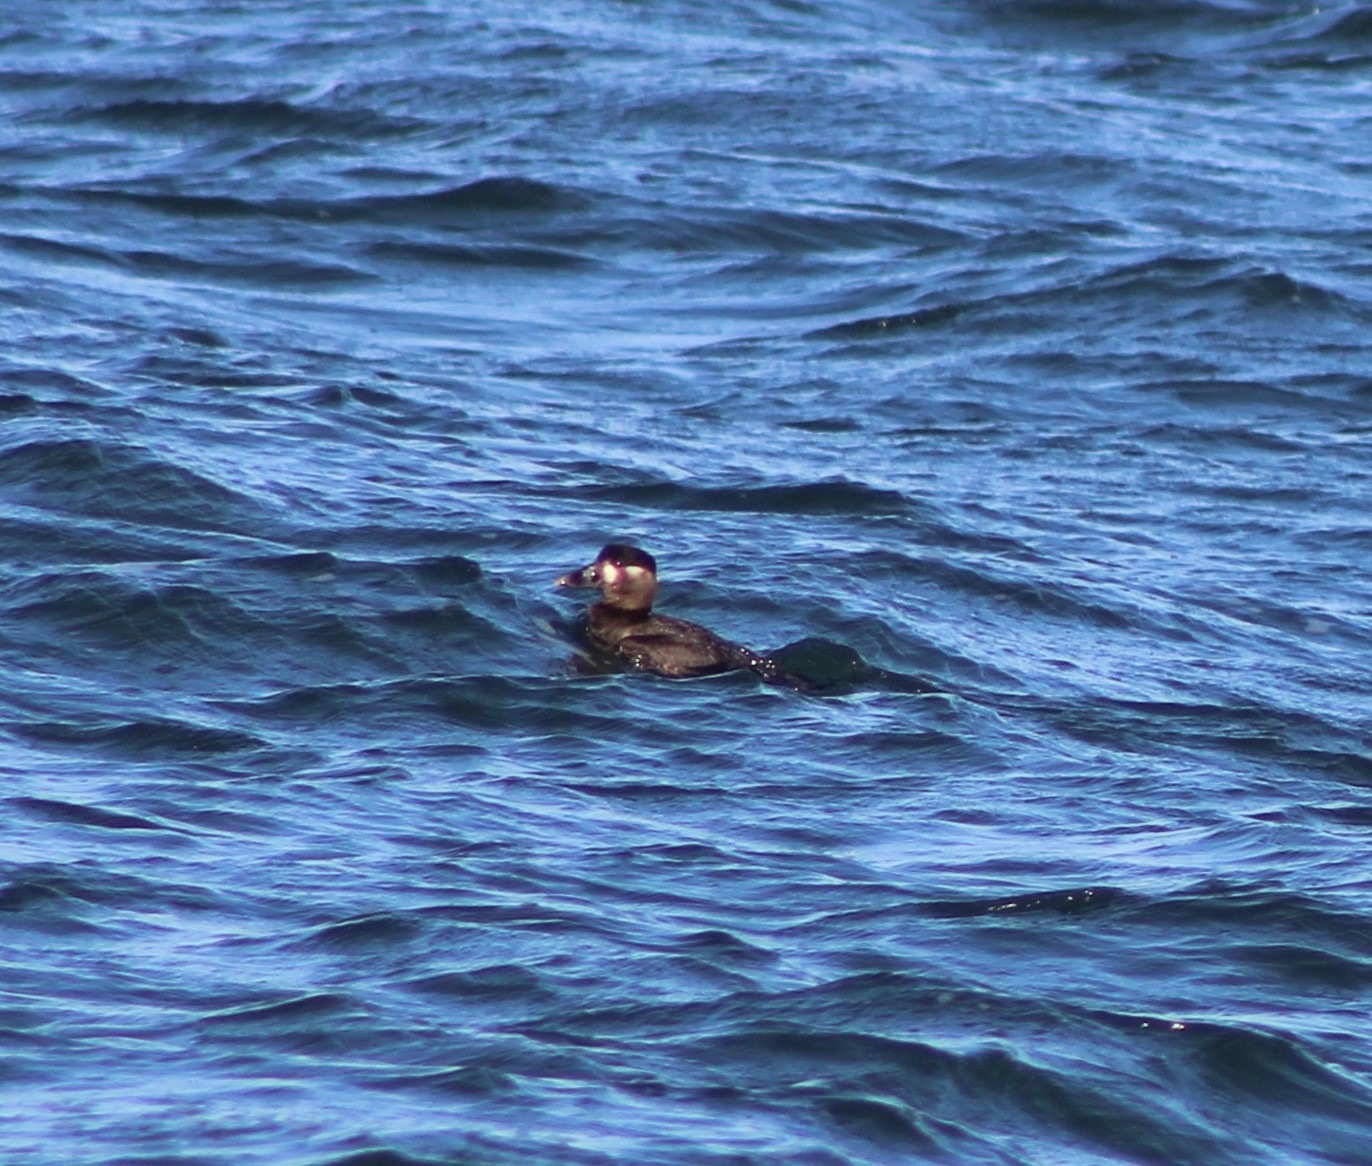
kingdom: Animalia
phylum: Chordata
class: Aves
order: Anseriformes
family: Anatidae
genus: Melanitta
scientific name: Melanitta perspicillata
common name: Surf scoter
